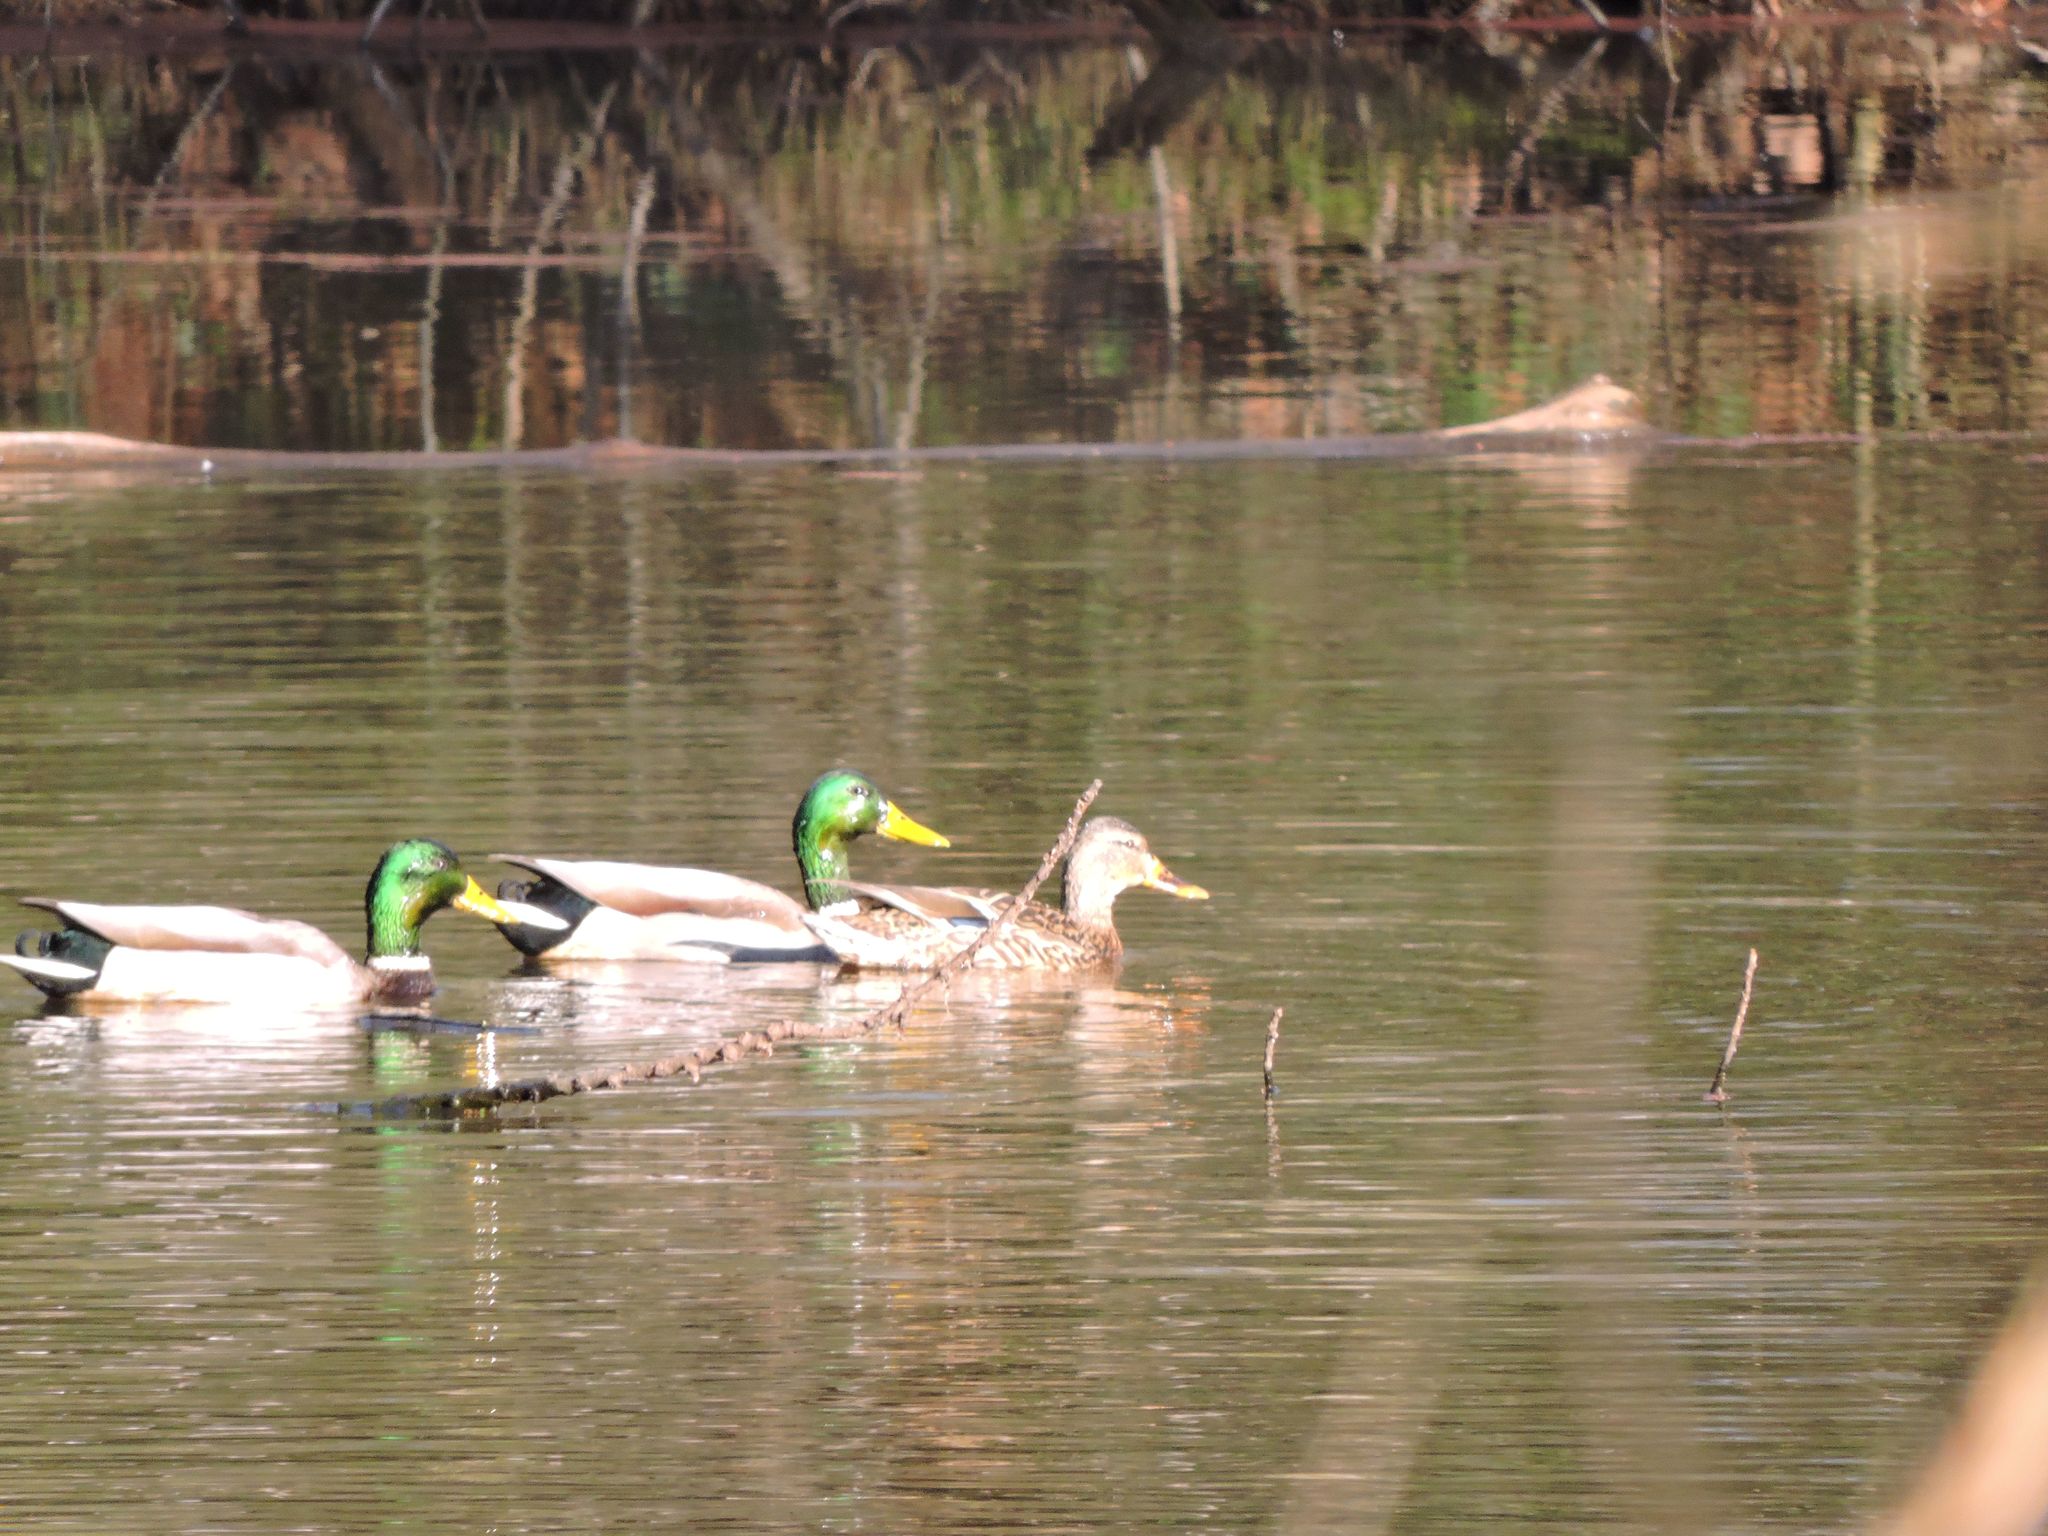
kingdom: Animalia
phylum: Chordata
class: Aves
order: Anseriformes
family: Anatidae
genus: Anas
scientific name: Anas platyrhynchos
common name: Mallard
